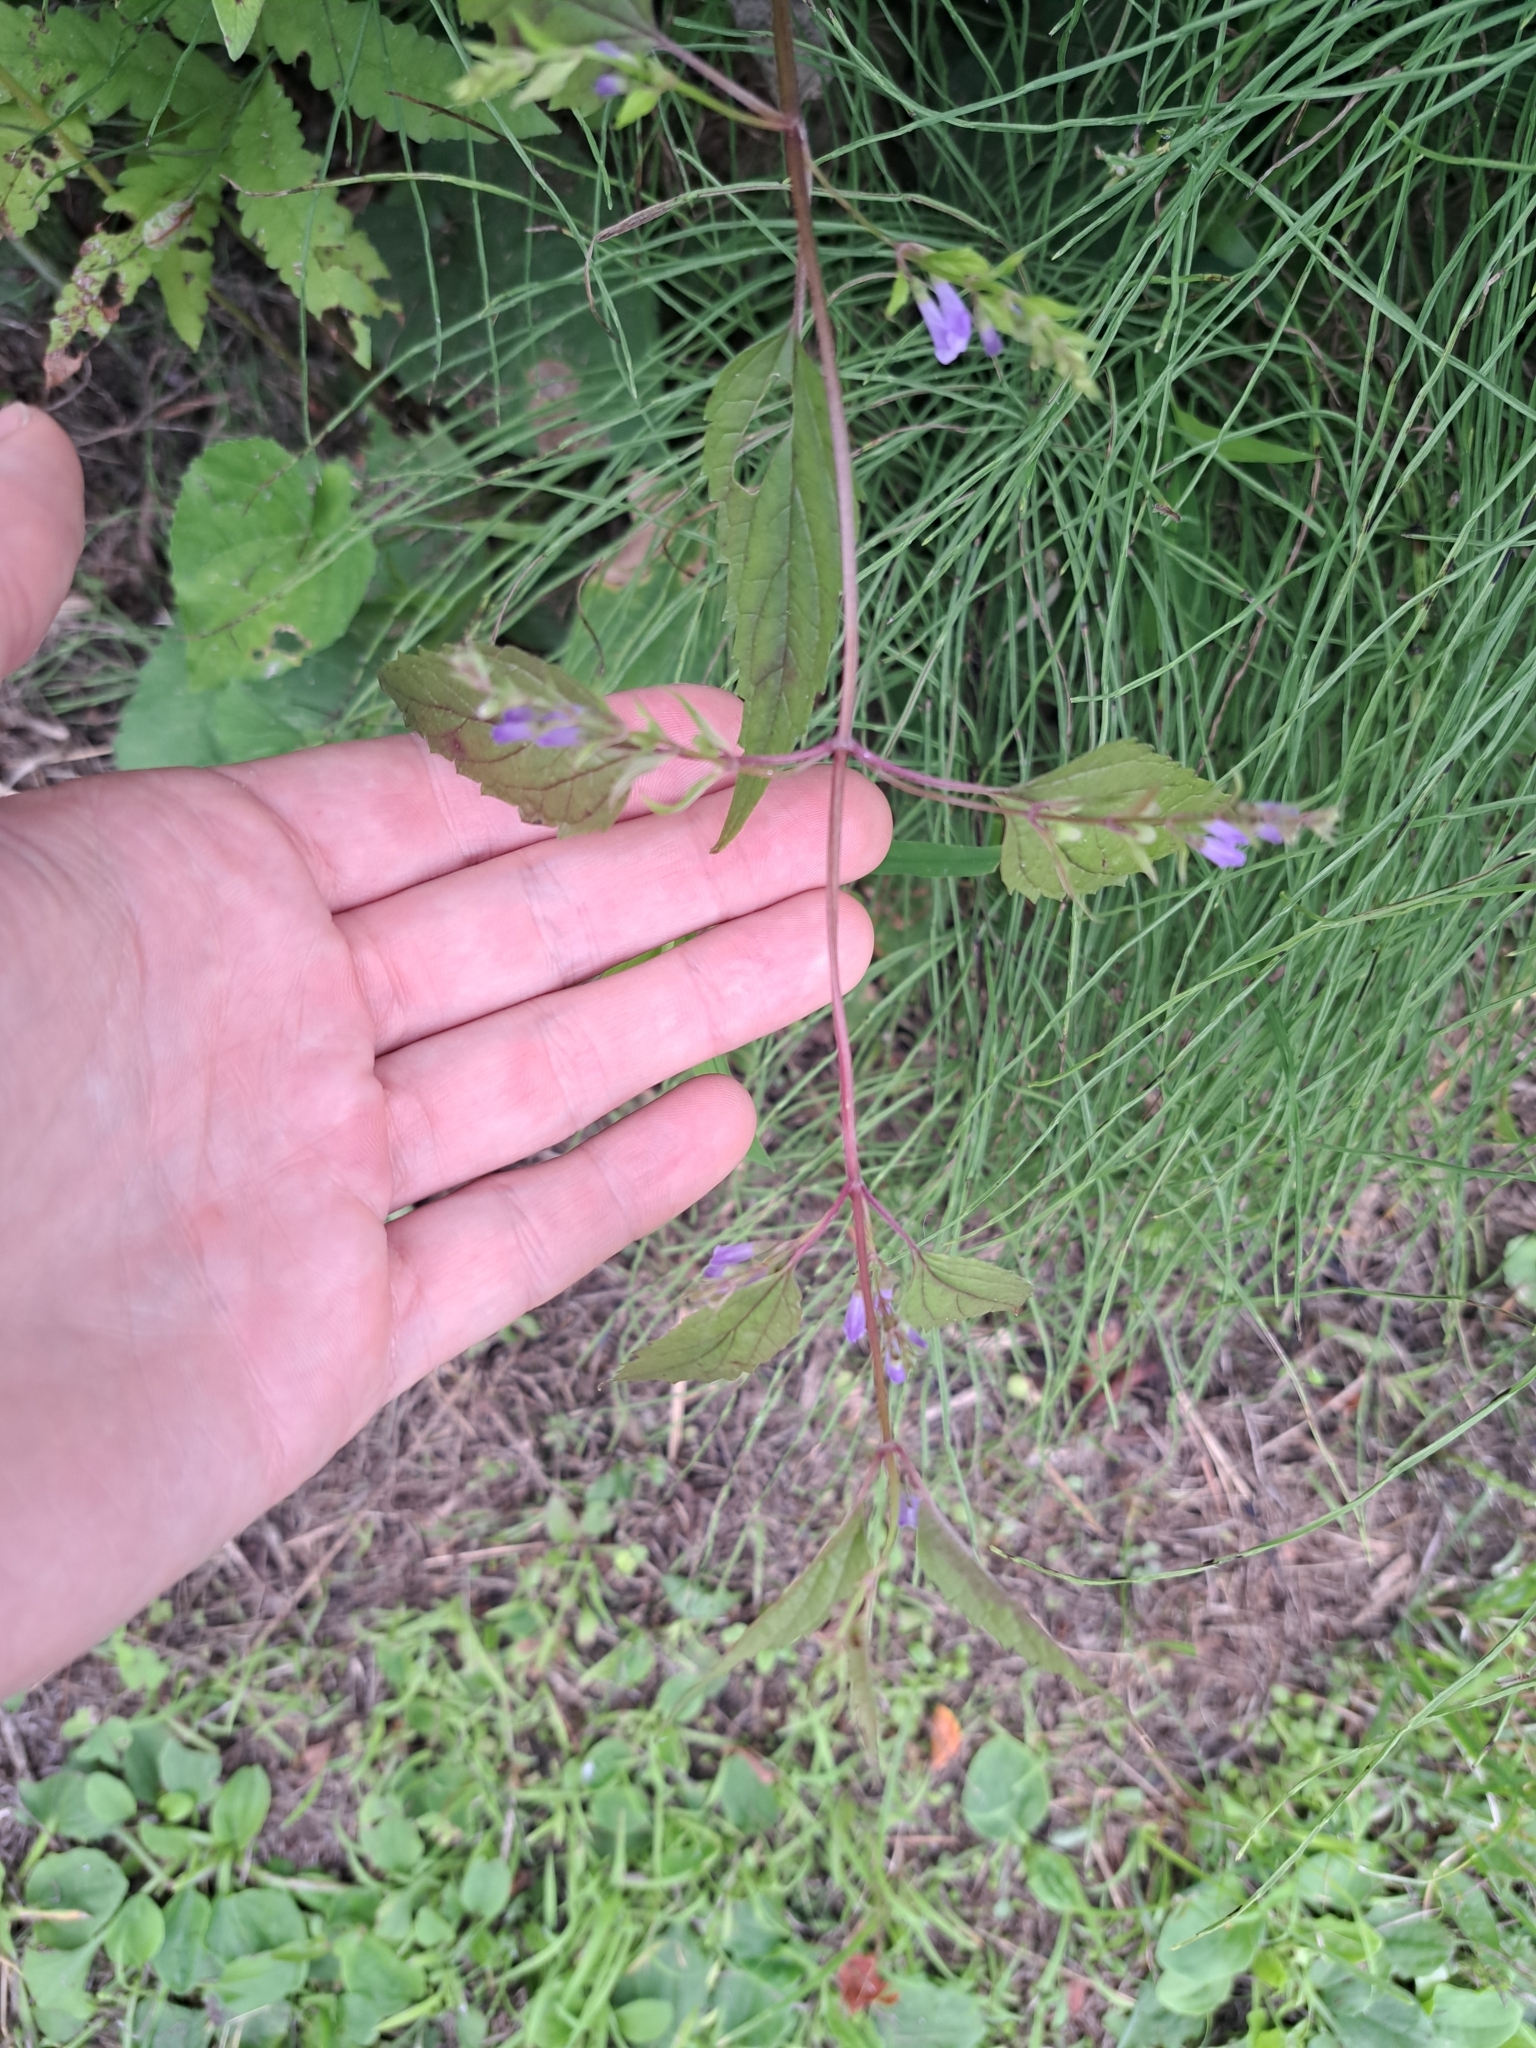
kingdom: Plantae
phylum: Tracheophyta
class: Magnoliopsida
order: Lamiales
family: Lamiaceae
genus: Scutellaria
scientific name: Scutellaria lateriflora
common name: Blue skullcap
